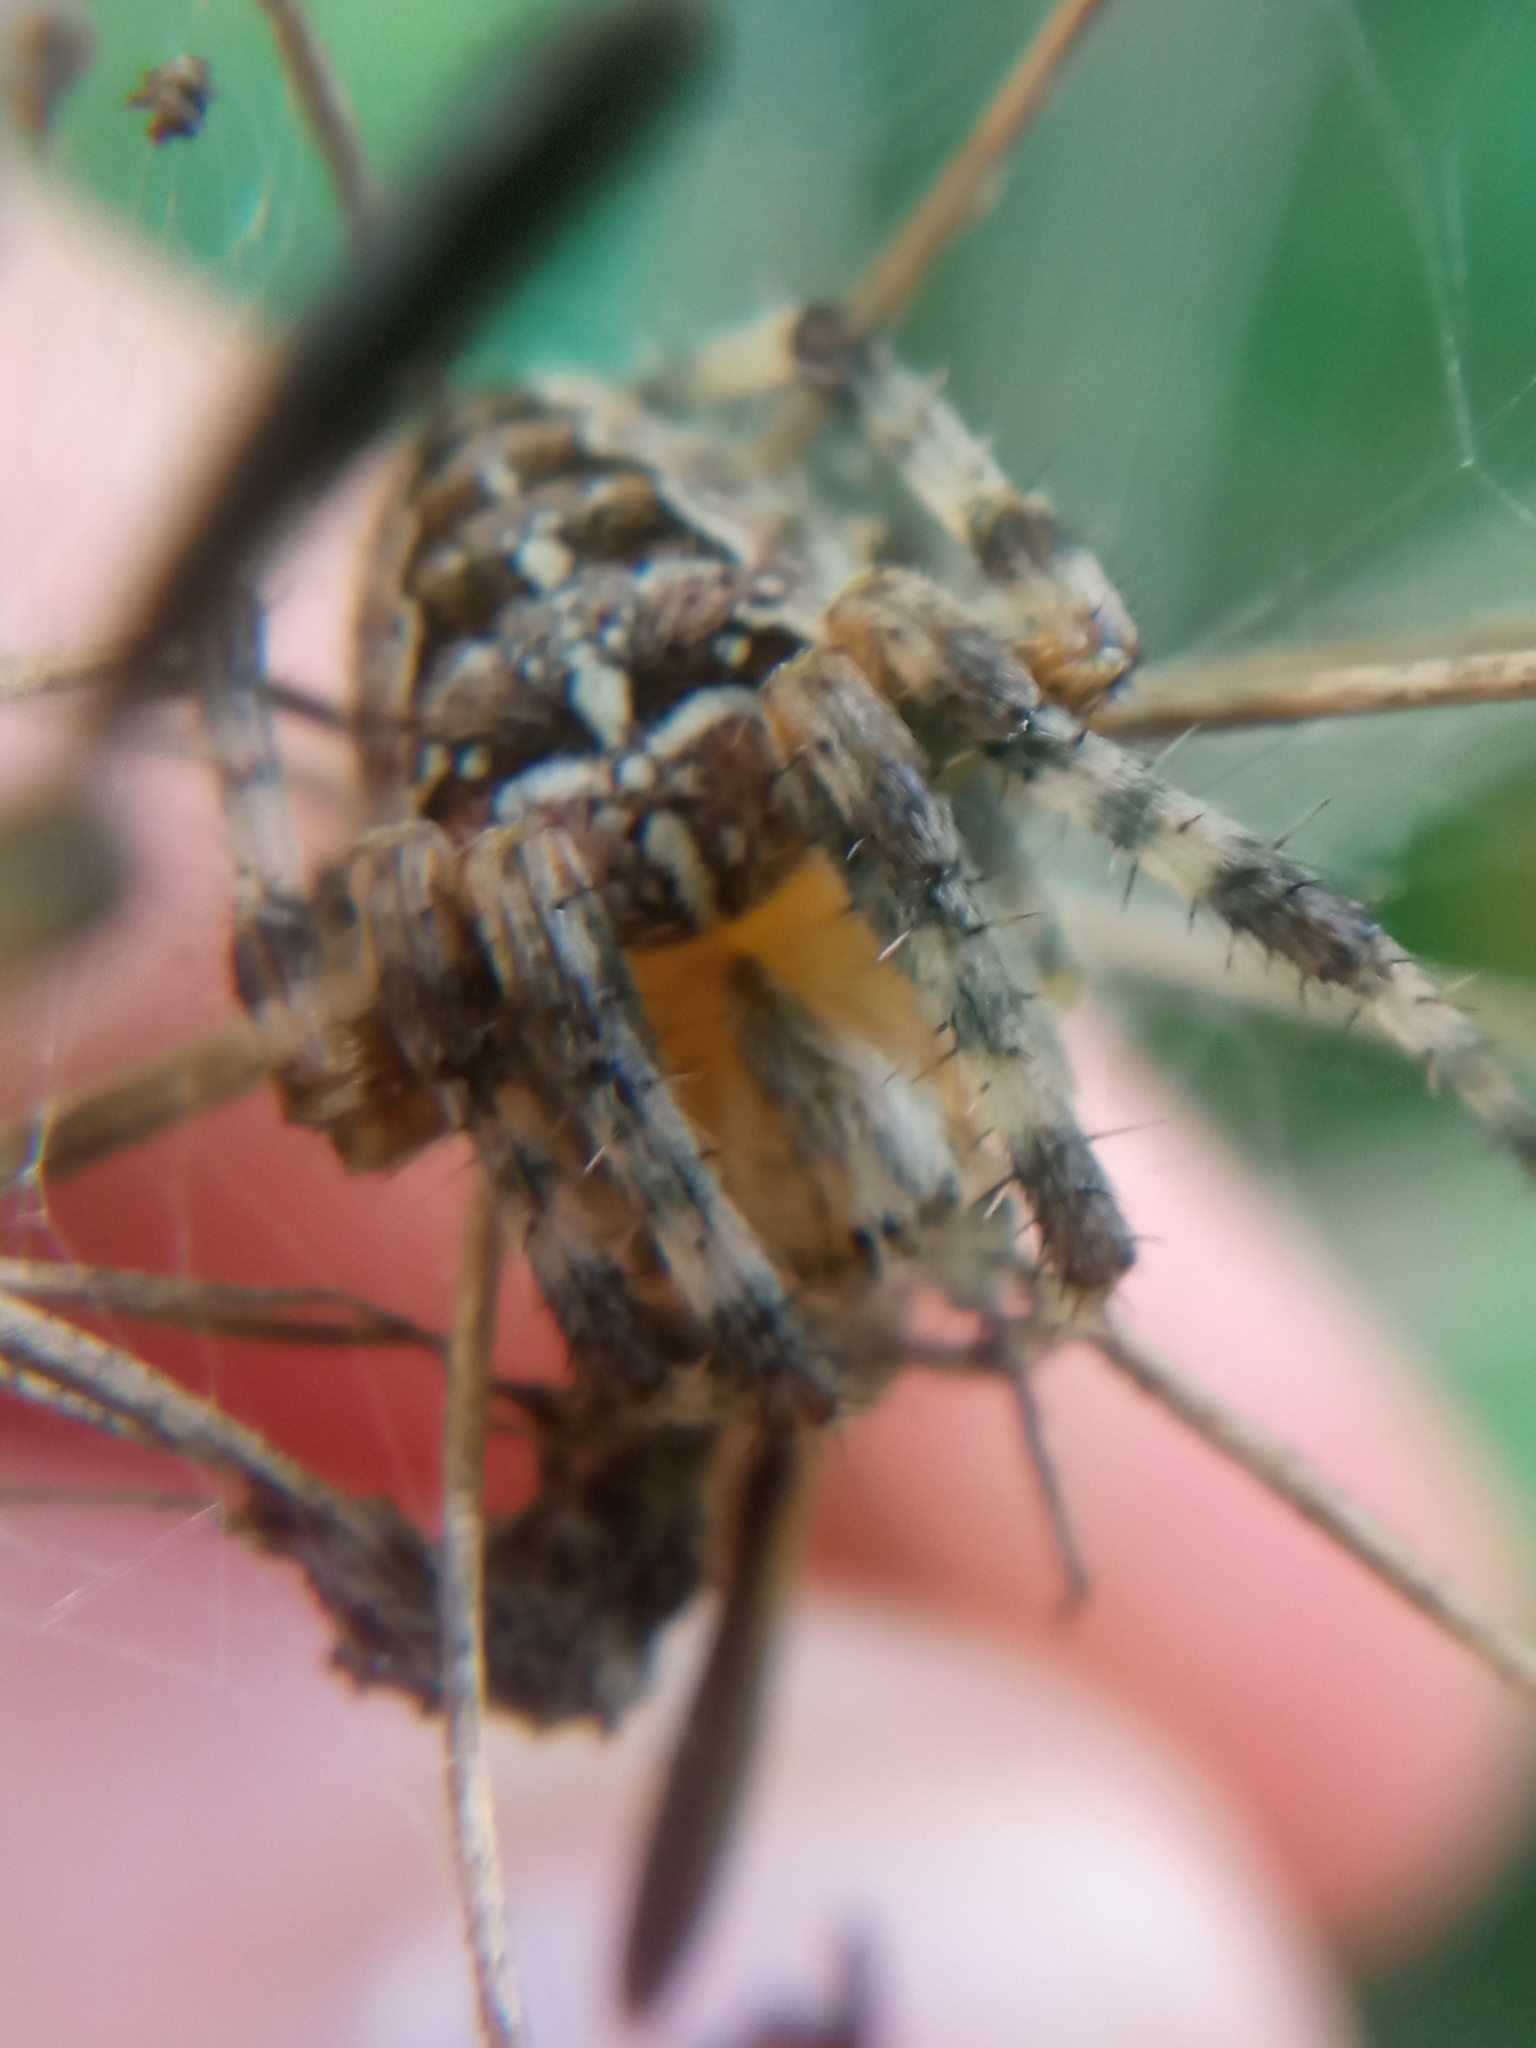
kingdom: Animalia
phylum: Arthropoda
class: Arachnida
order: Araneae
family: Araneidae
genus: Araneus
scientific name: Araneus diadematus
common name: Cross orbweaver
